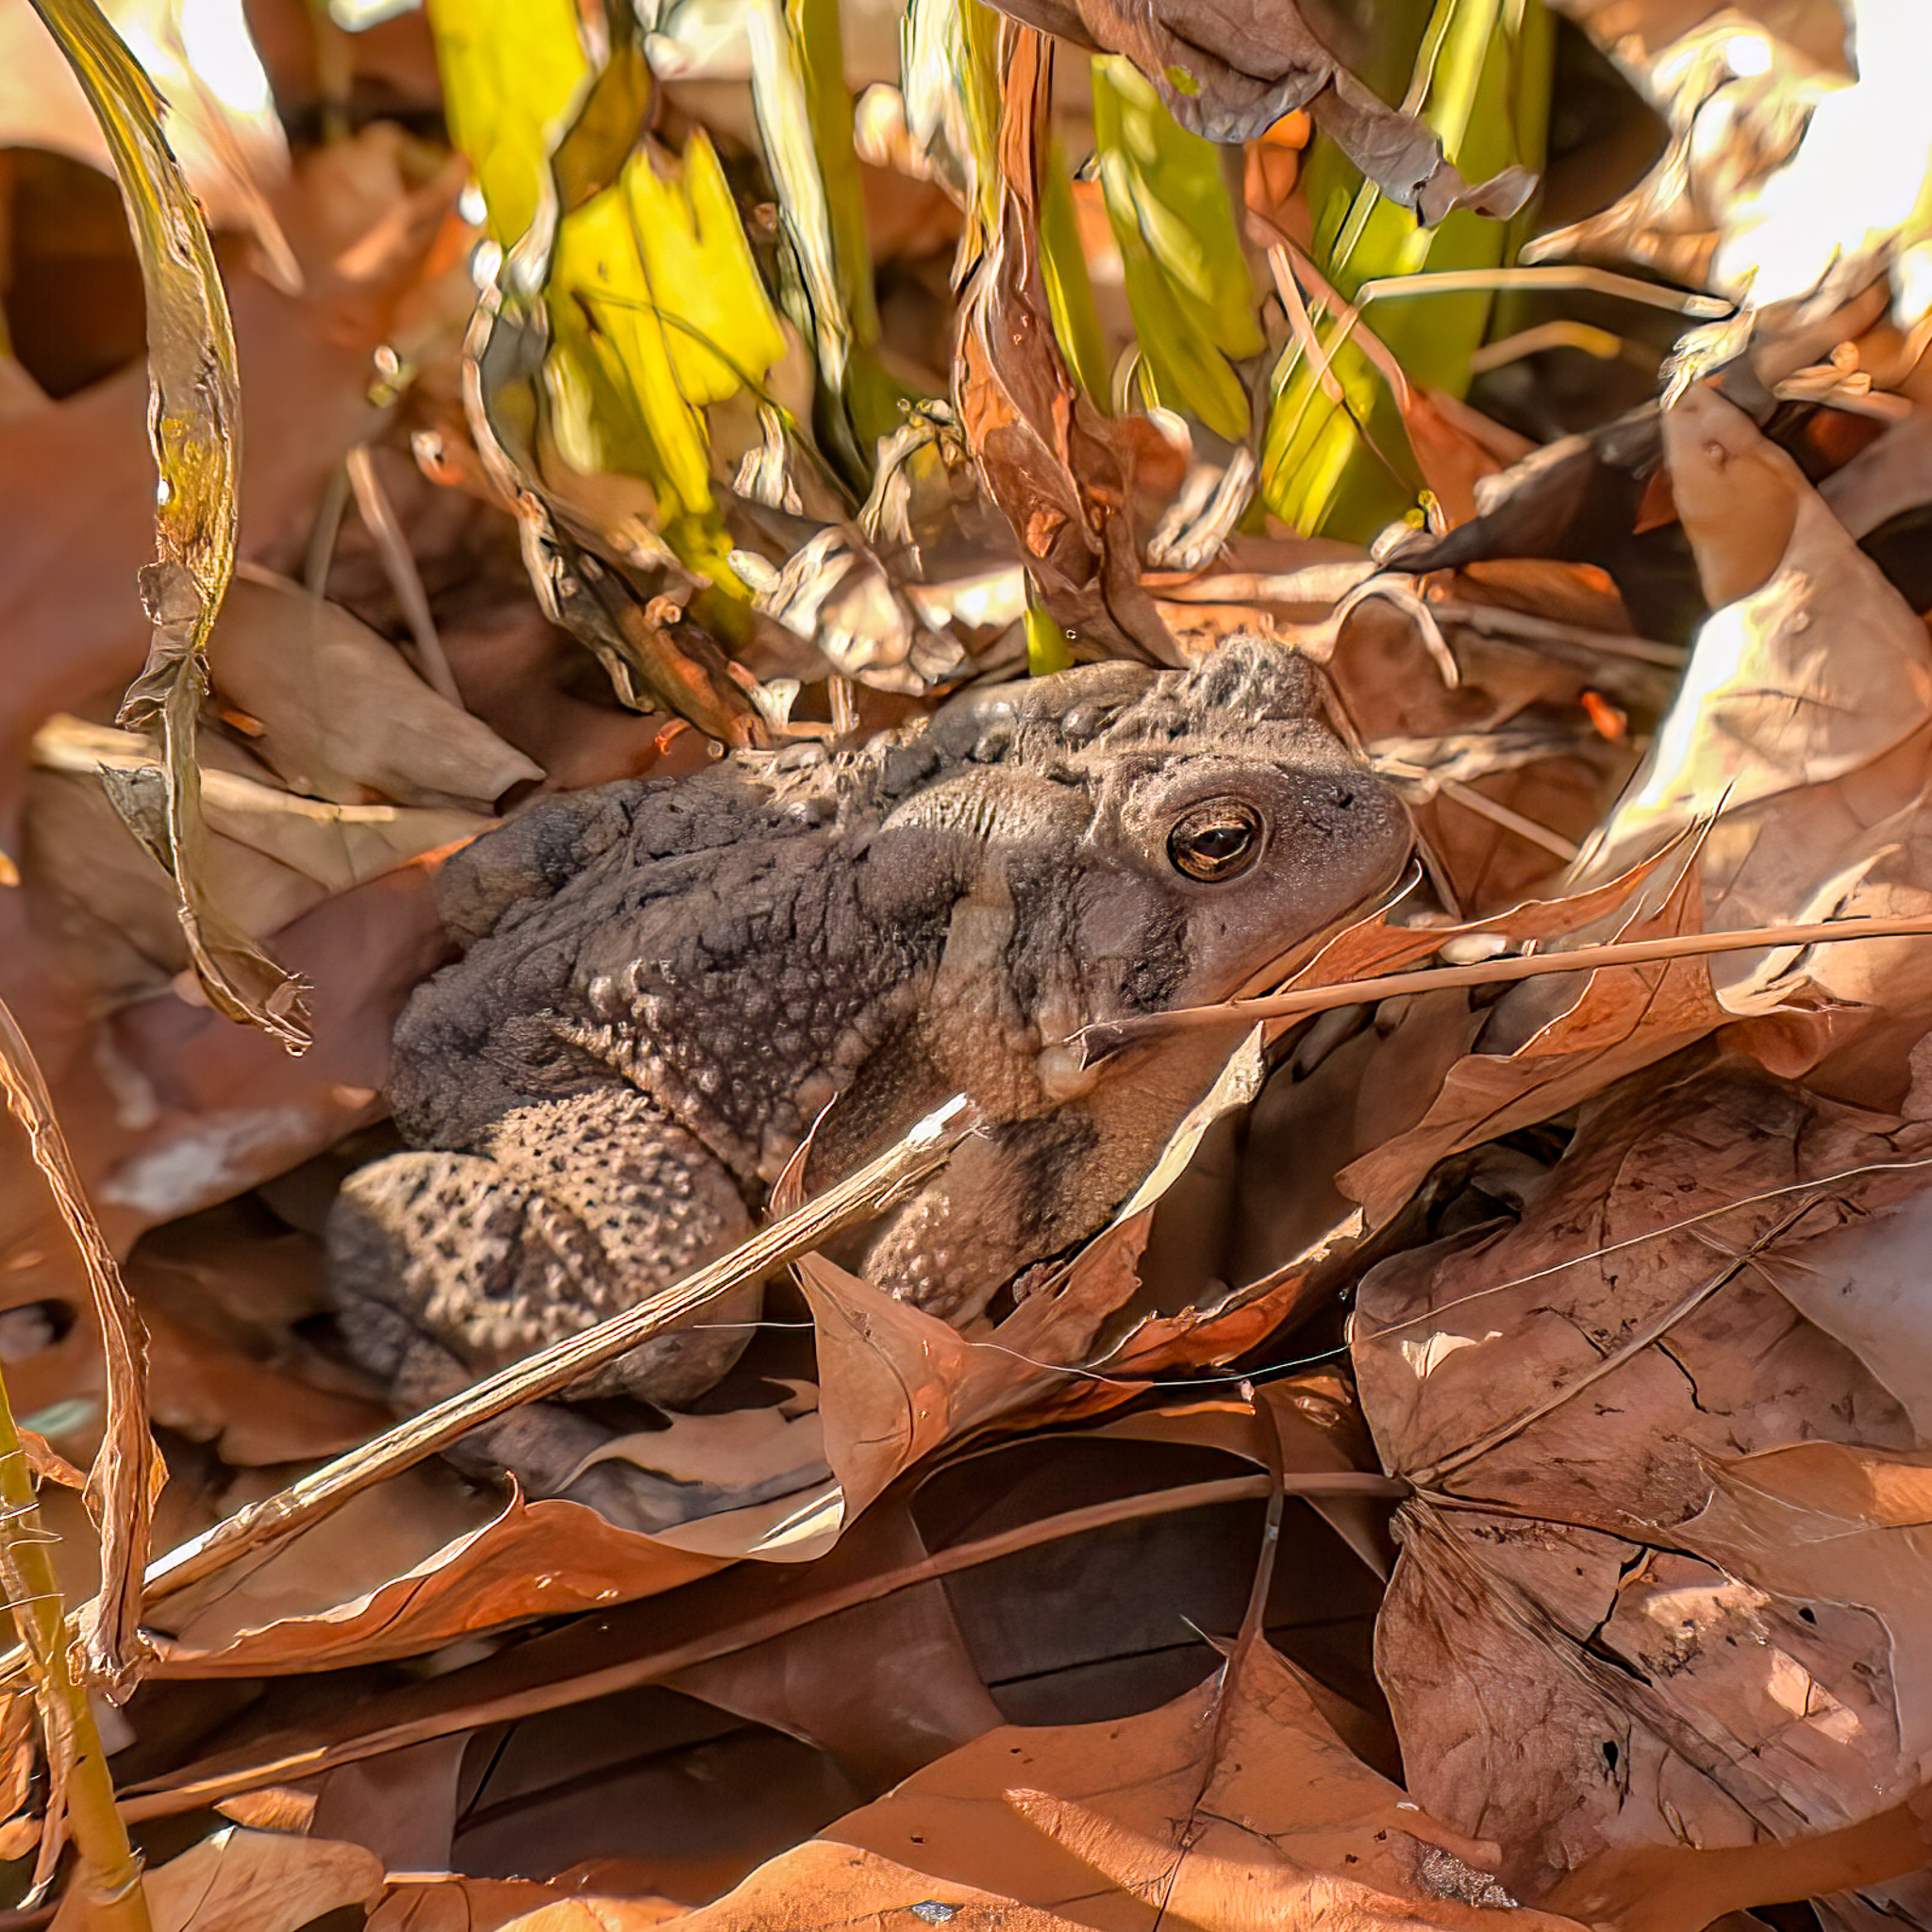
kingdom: Animalia
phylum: Chordata
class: Amphibia
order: Anura
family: Bufonidae
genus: Anaxyrus
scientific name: Anaxyrus americanus
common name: American toad
